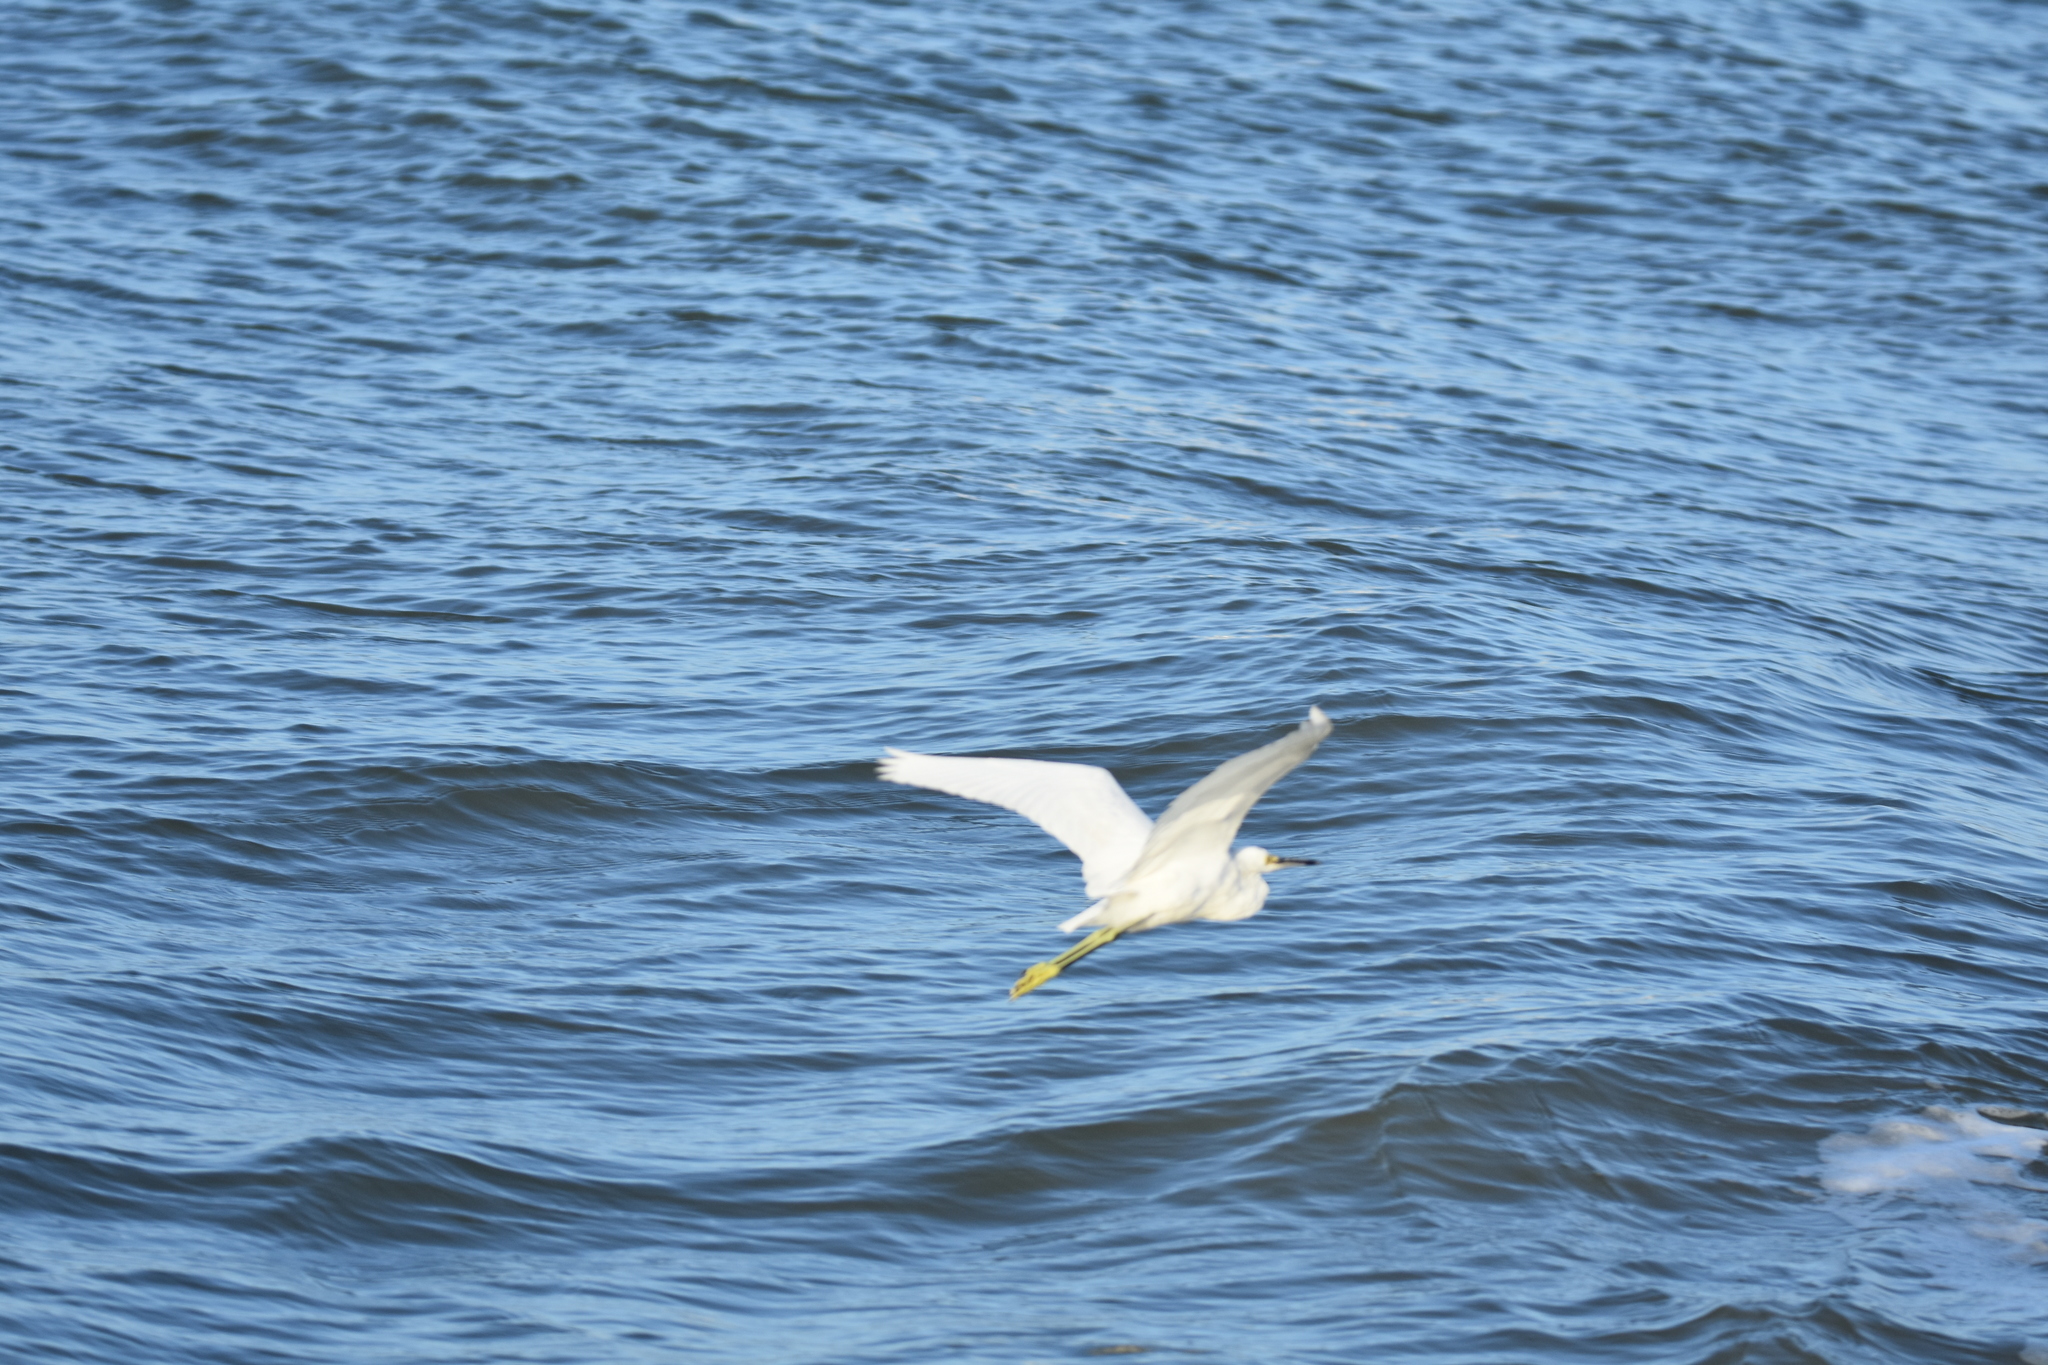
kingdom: Animalia
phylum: Chordata
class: Aves
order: Pelecaniformes
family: Ardeidae
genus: Egretta
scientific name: Egretta thula
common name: Snowy egret
